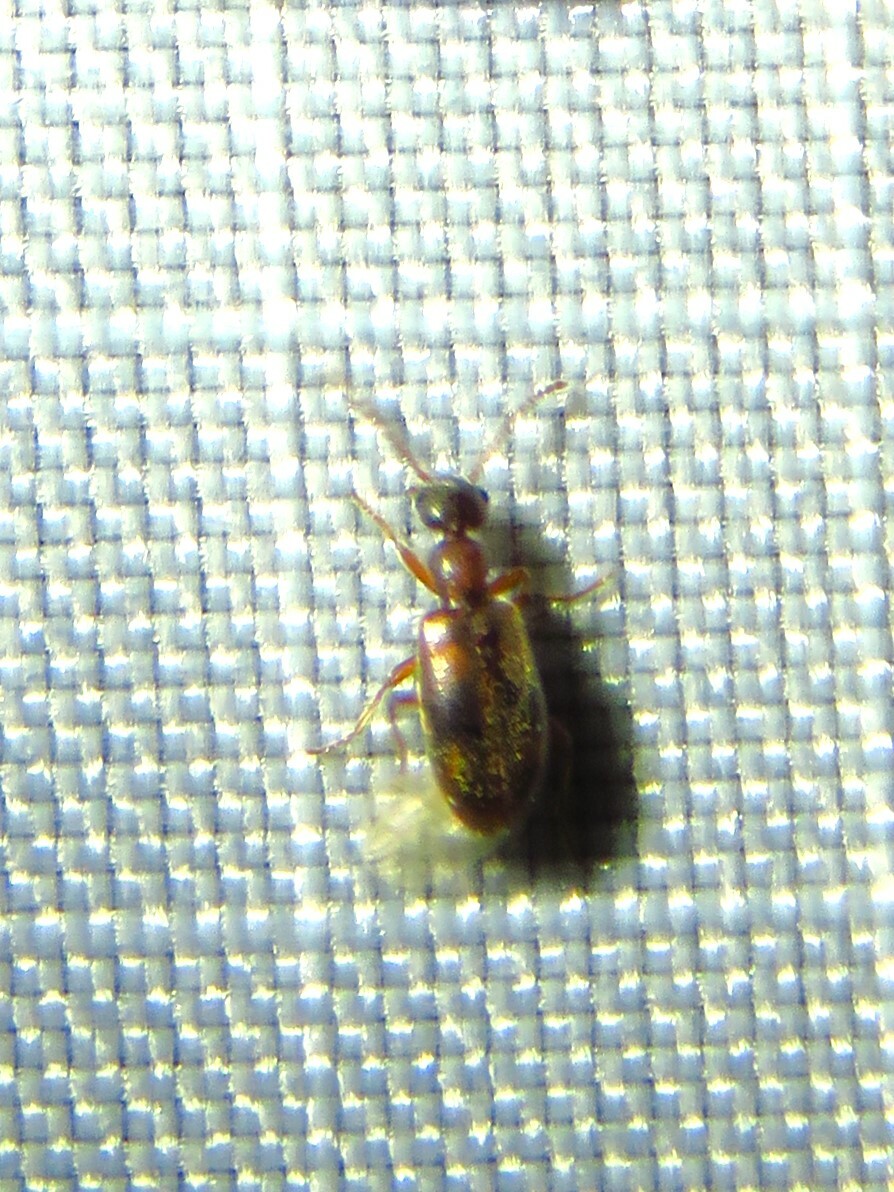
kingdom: Animalia
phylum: Arthropoda
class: Insecta
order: Coleoptera
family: Anthicidae
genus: Anthicus
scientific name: Anthicus cervinus
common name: Cloudy flower beetle
